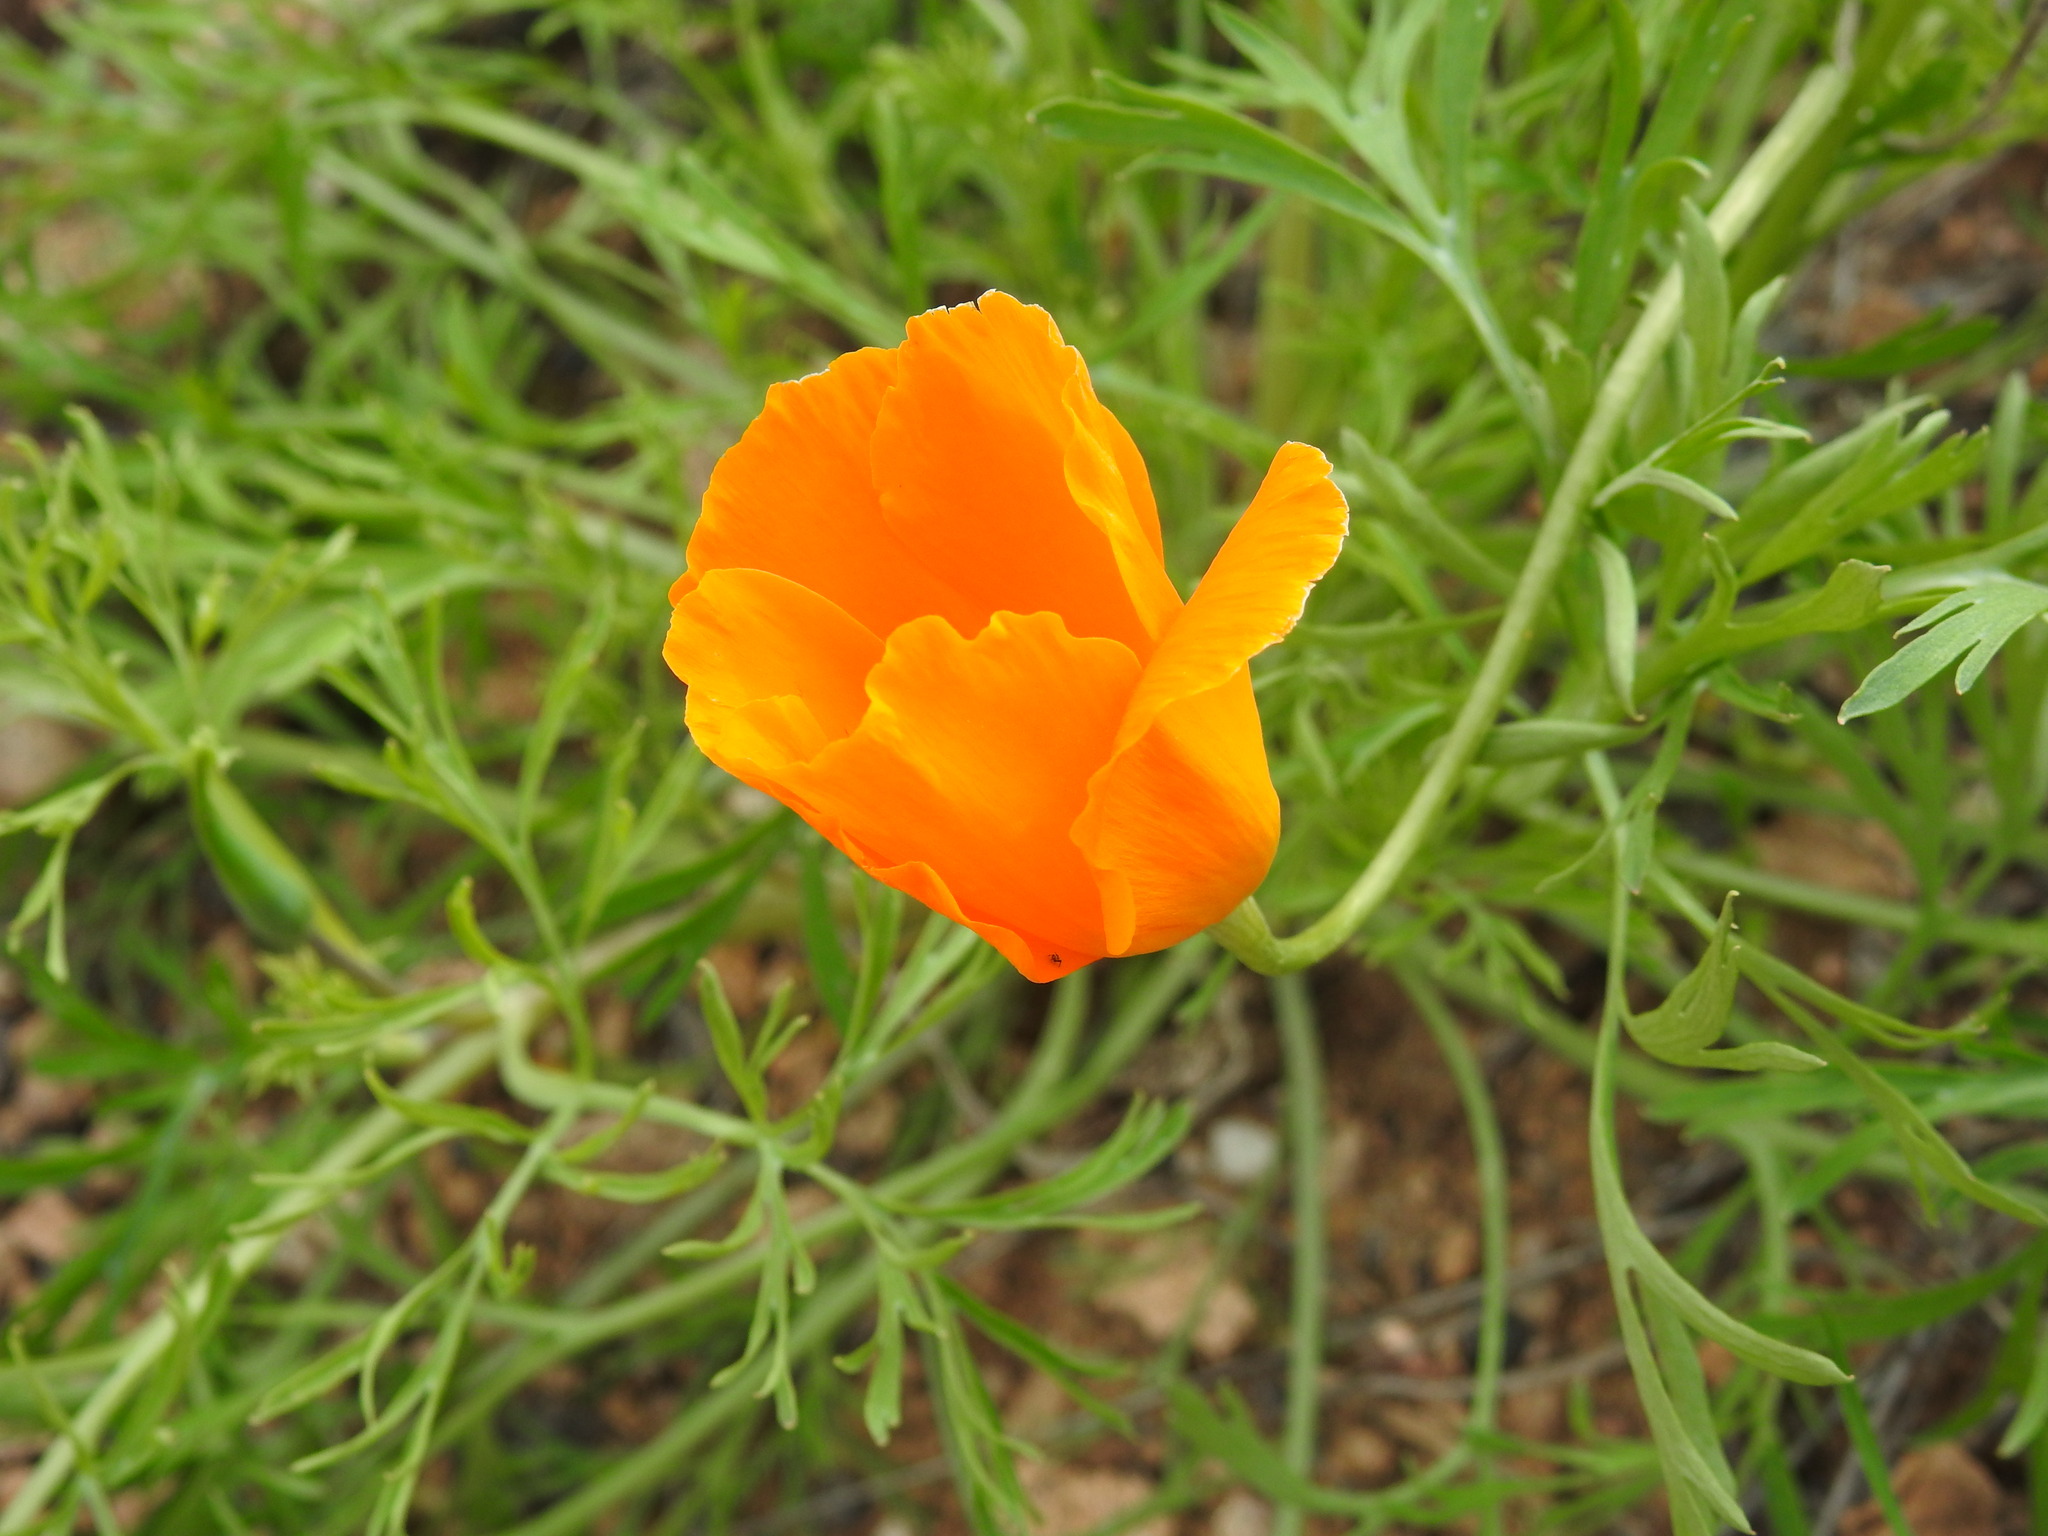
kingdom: Plantae
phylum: Tracheophyta
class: Magnoliopsida
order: Ranunculales
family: Papaveraceae
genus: Eschscholzia
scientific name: Eschscholzia californica
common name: California poppy
